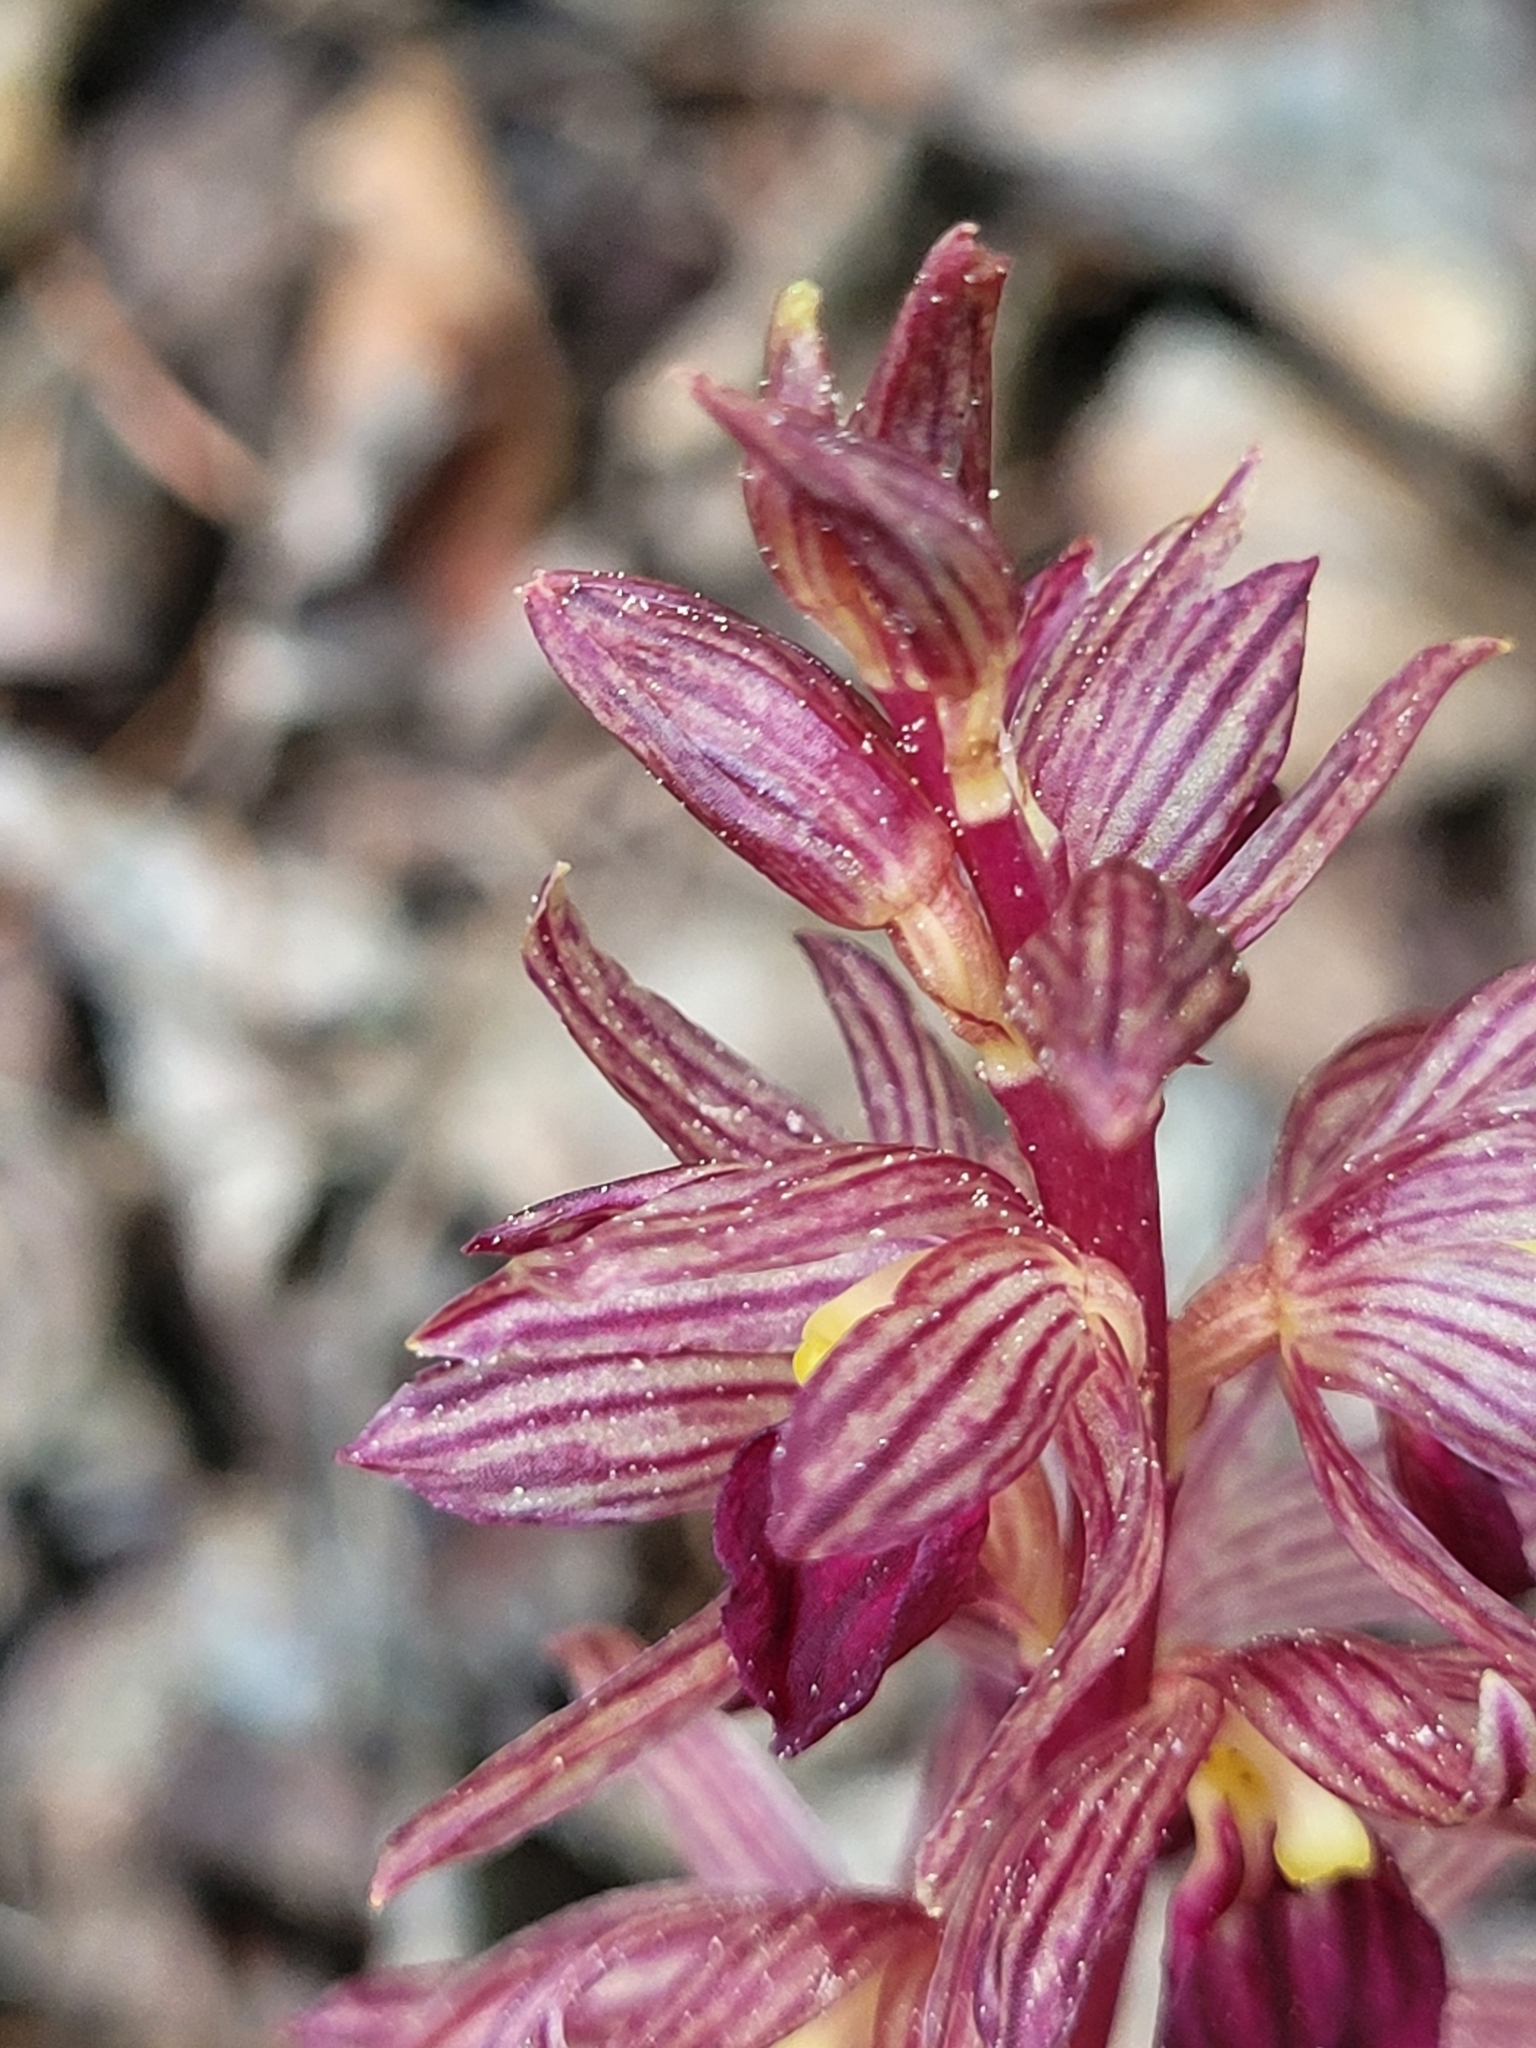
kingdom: Plantae
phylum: Tracheophyta
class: Liliopsida
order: Asparagales
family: Orchidaceae
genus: Corallorhiza
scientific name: Corallorhiza striata
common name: Hooded coralroot
